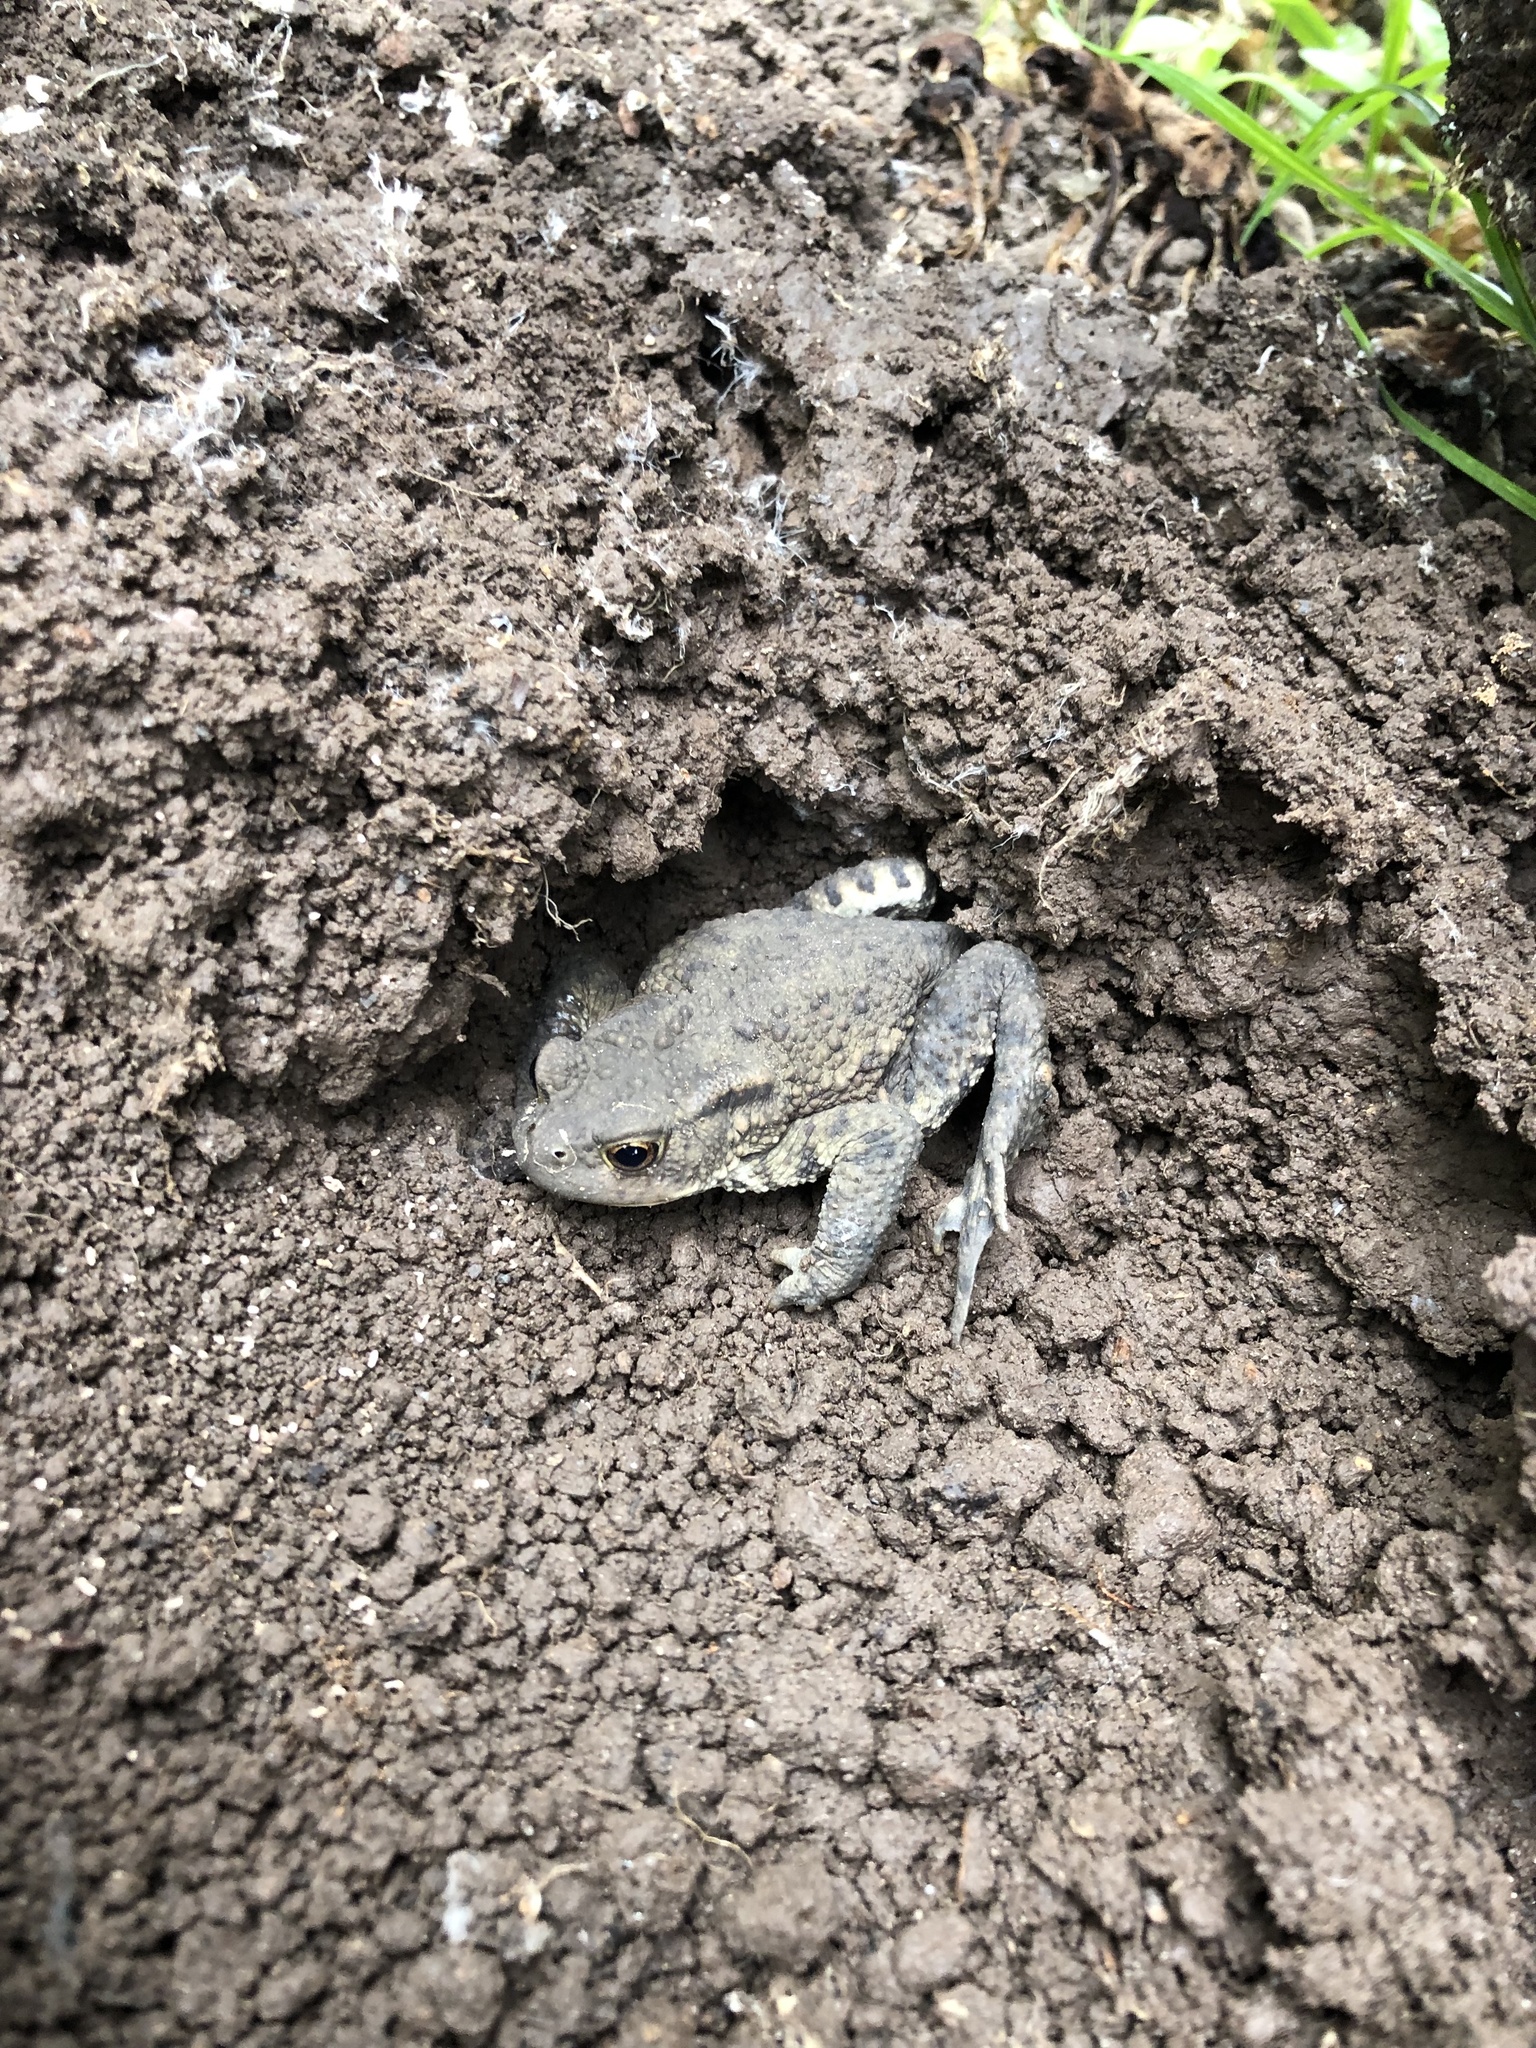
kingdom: Animalia
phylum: Chordata
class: Amphibia
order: Anura
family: Bufonidae
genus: Bufo
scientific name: Bufo bufo
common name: Common toad
